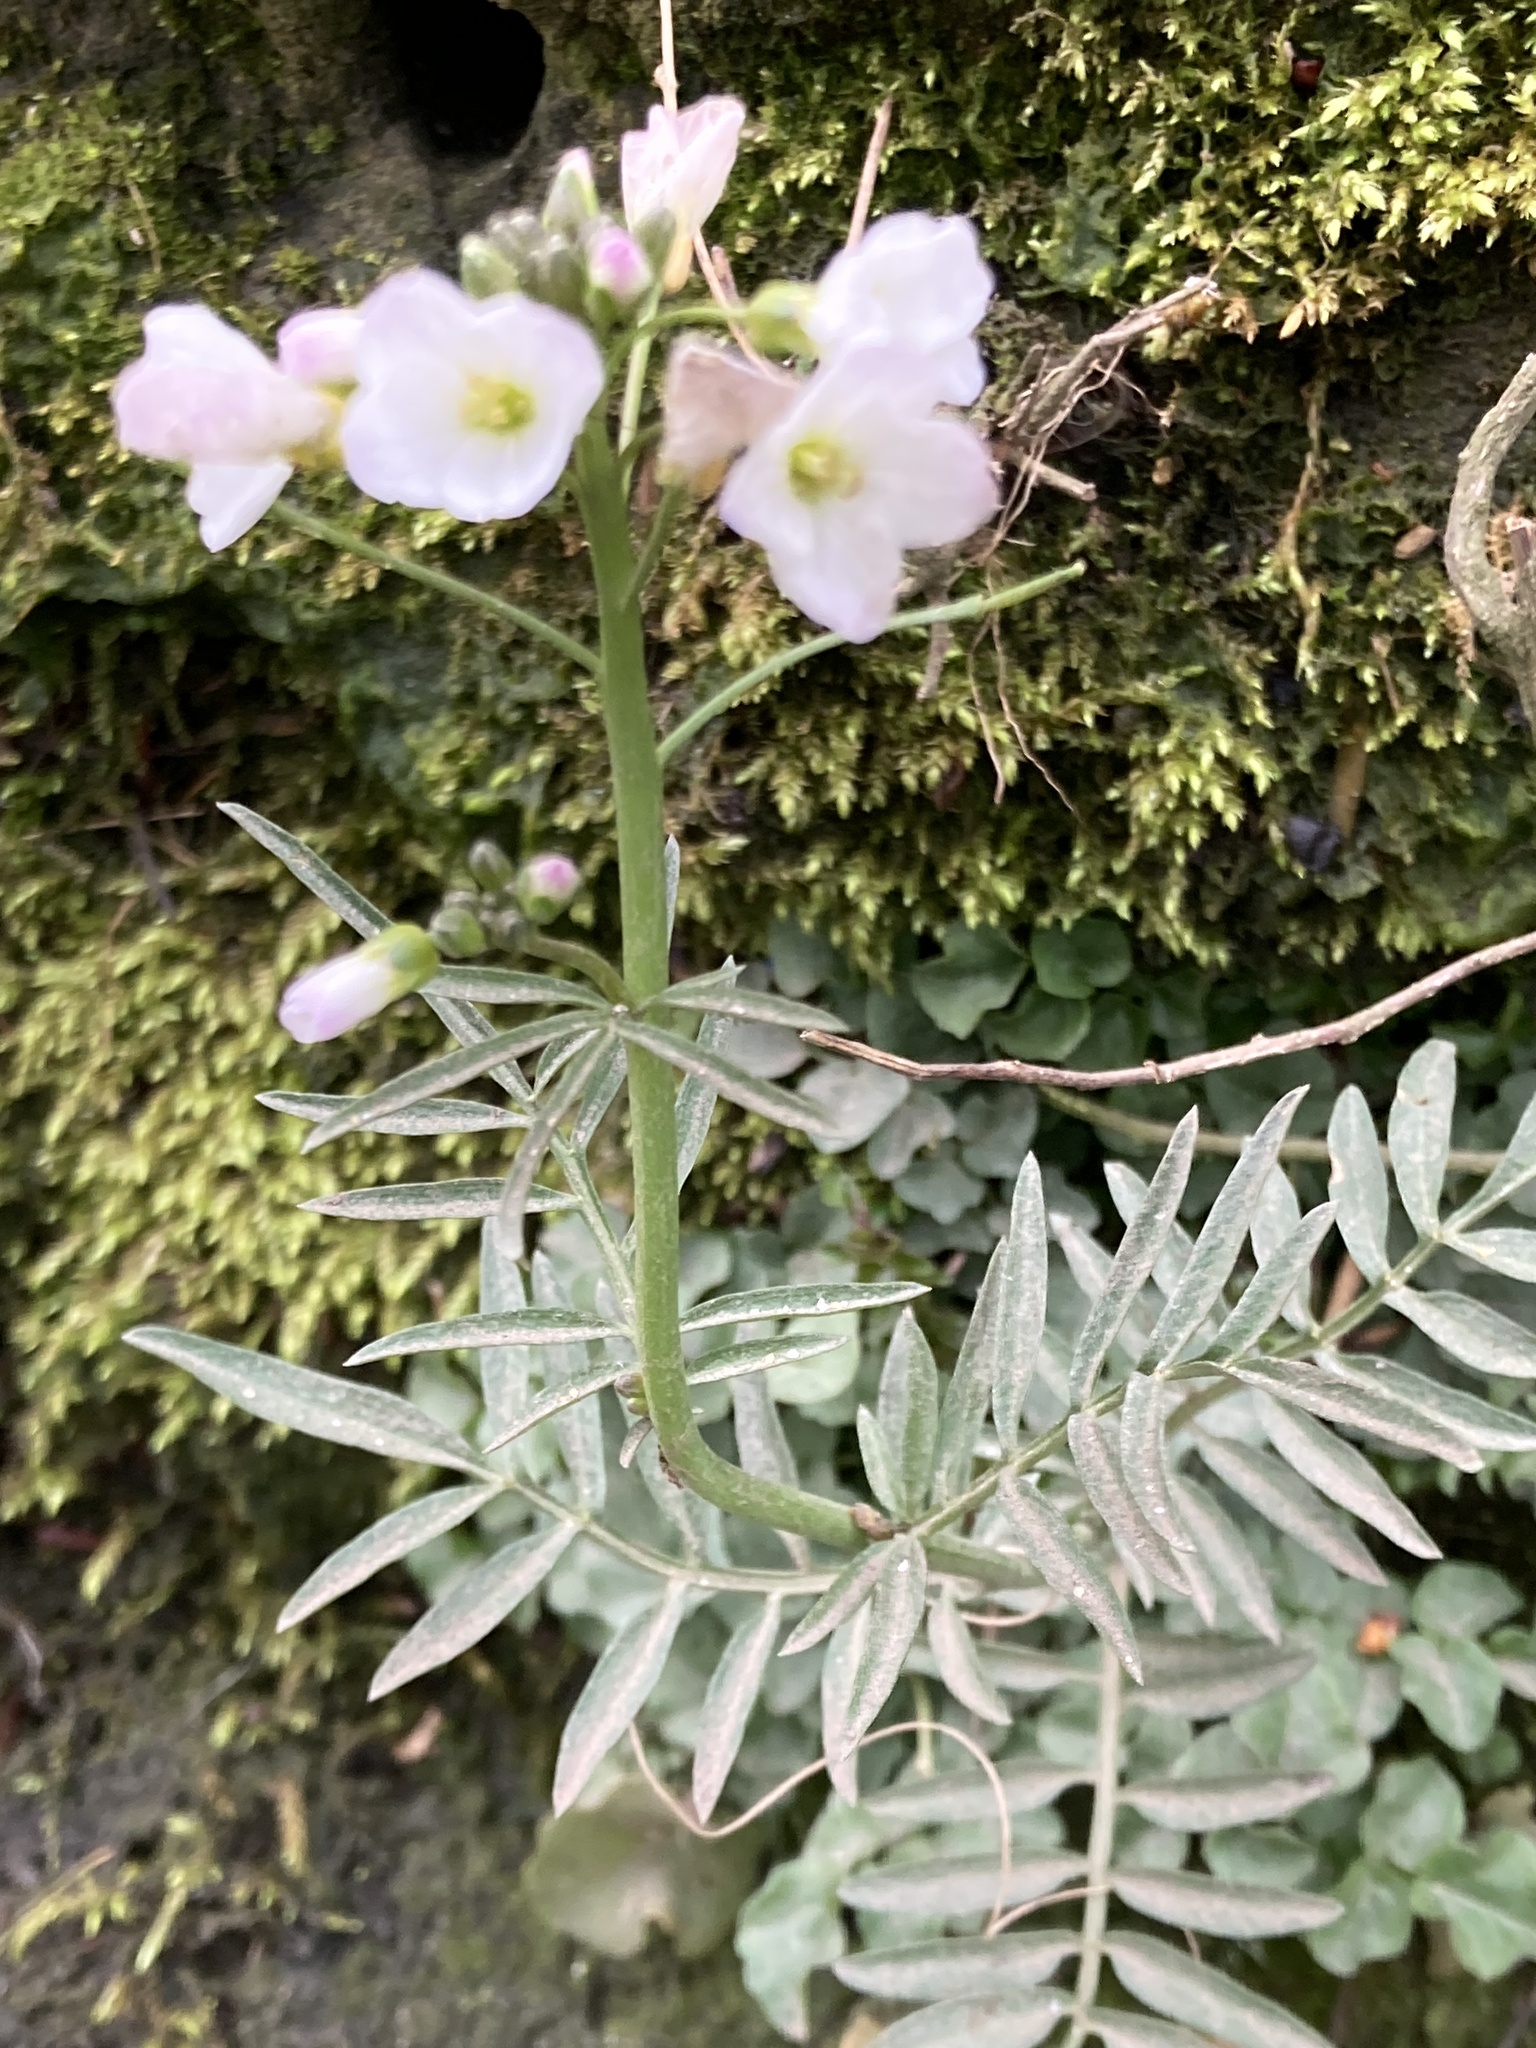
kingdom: Plantae
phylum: Tracheophyta
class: Magnoliopsida
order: Brassicales
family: Brassicaceae
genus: Cardamine
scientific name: Cardamine pratensis
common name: Cuckoo flower
